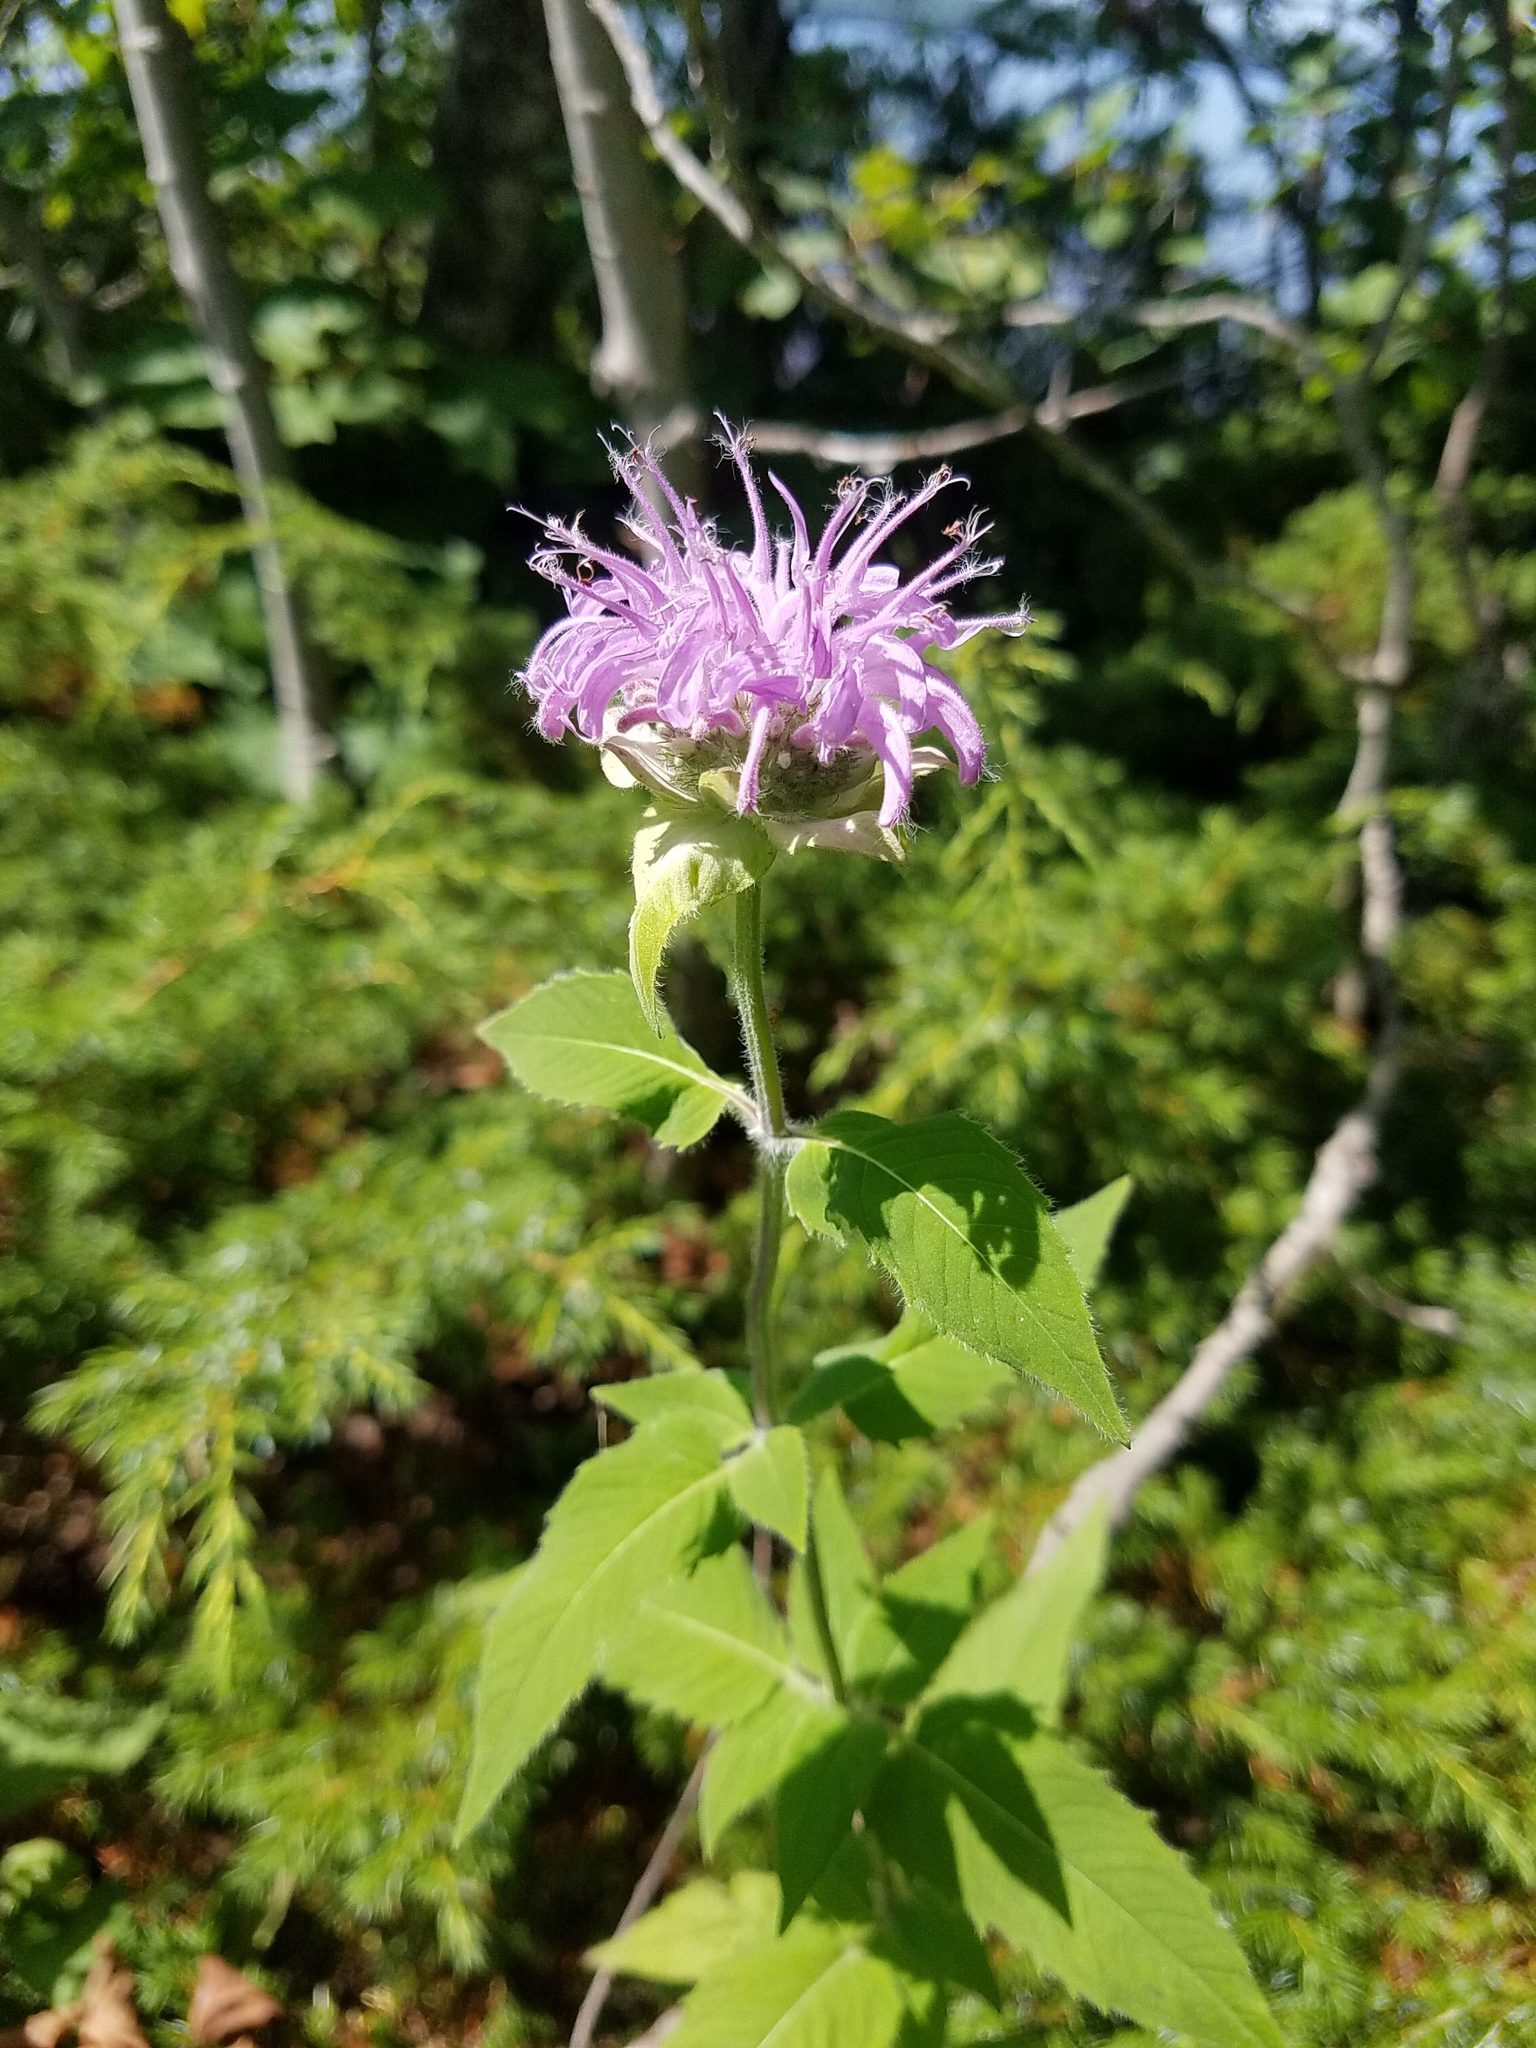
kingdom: Plantae
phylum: Tracheophyta
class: Magnoliopsida
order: Lamiales
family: Lamiaceae
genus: Monarda
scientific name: Monarda fistulosa
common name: Purple beebalm
